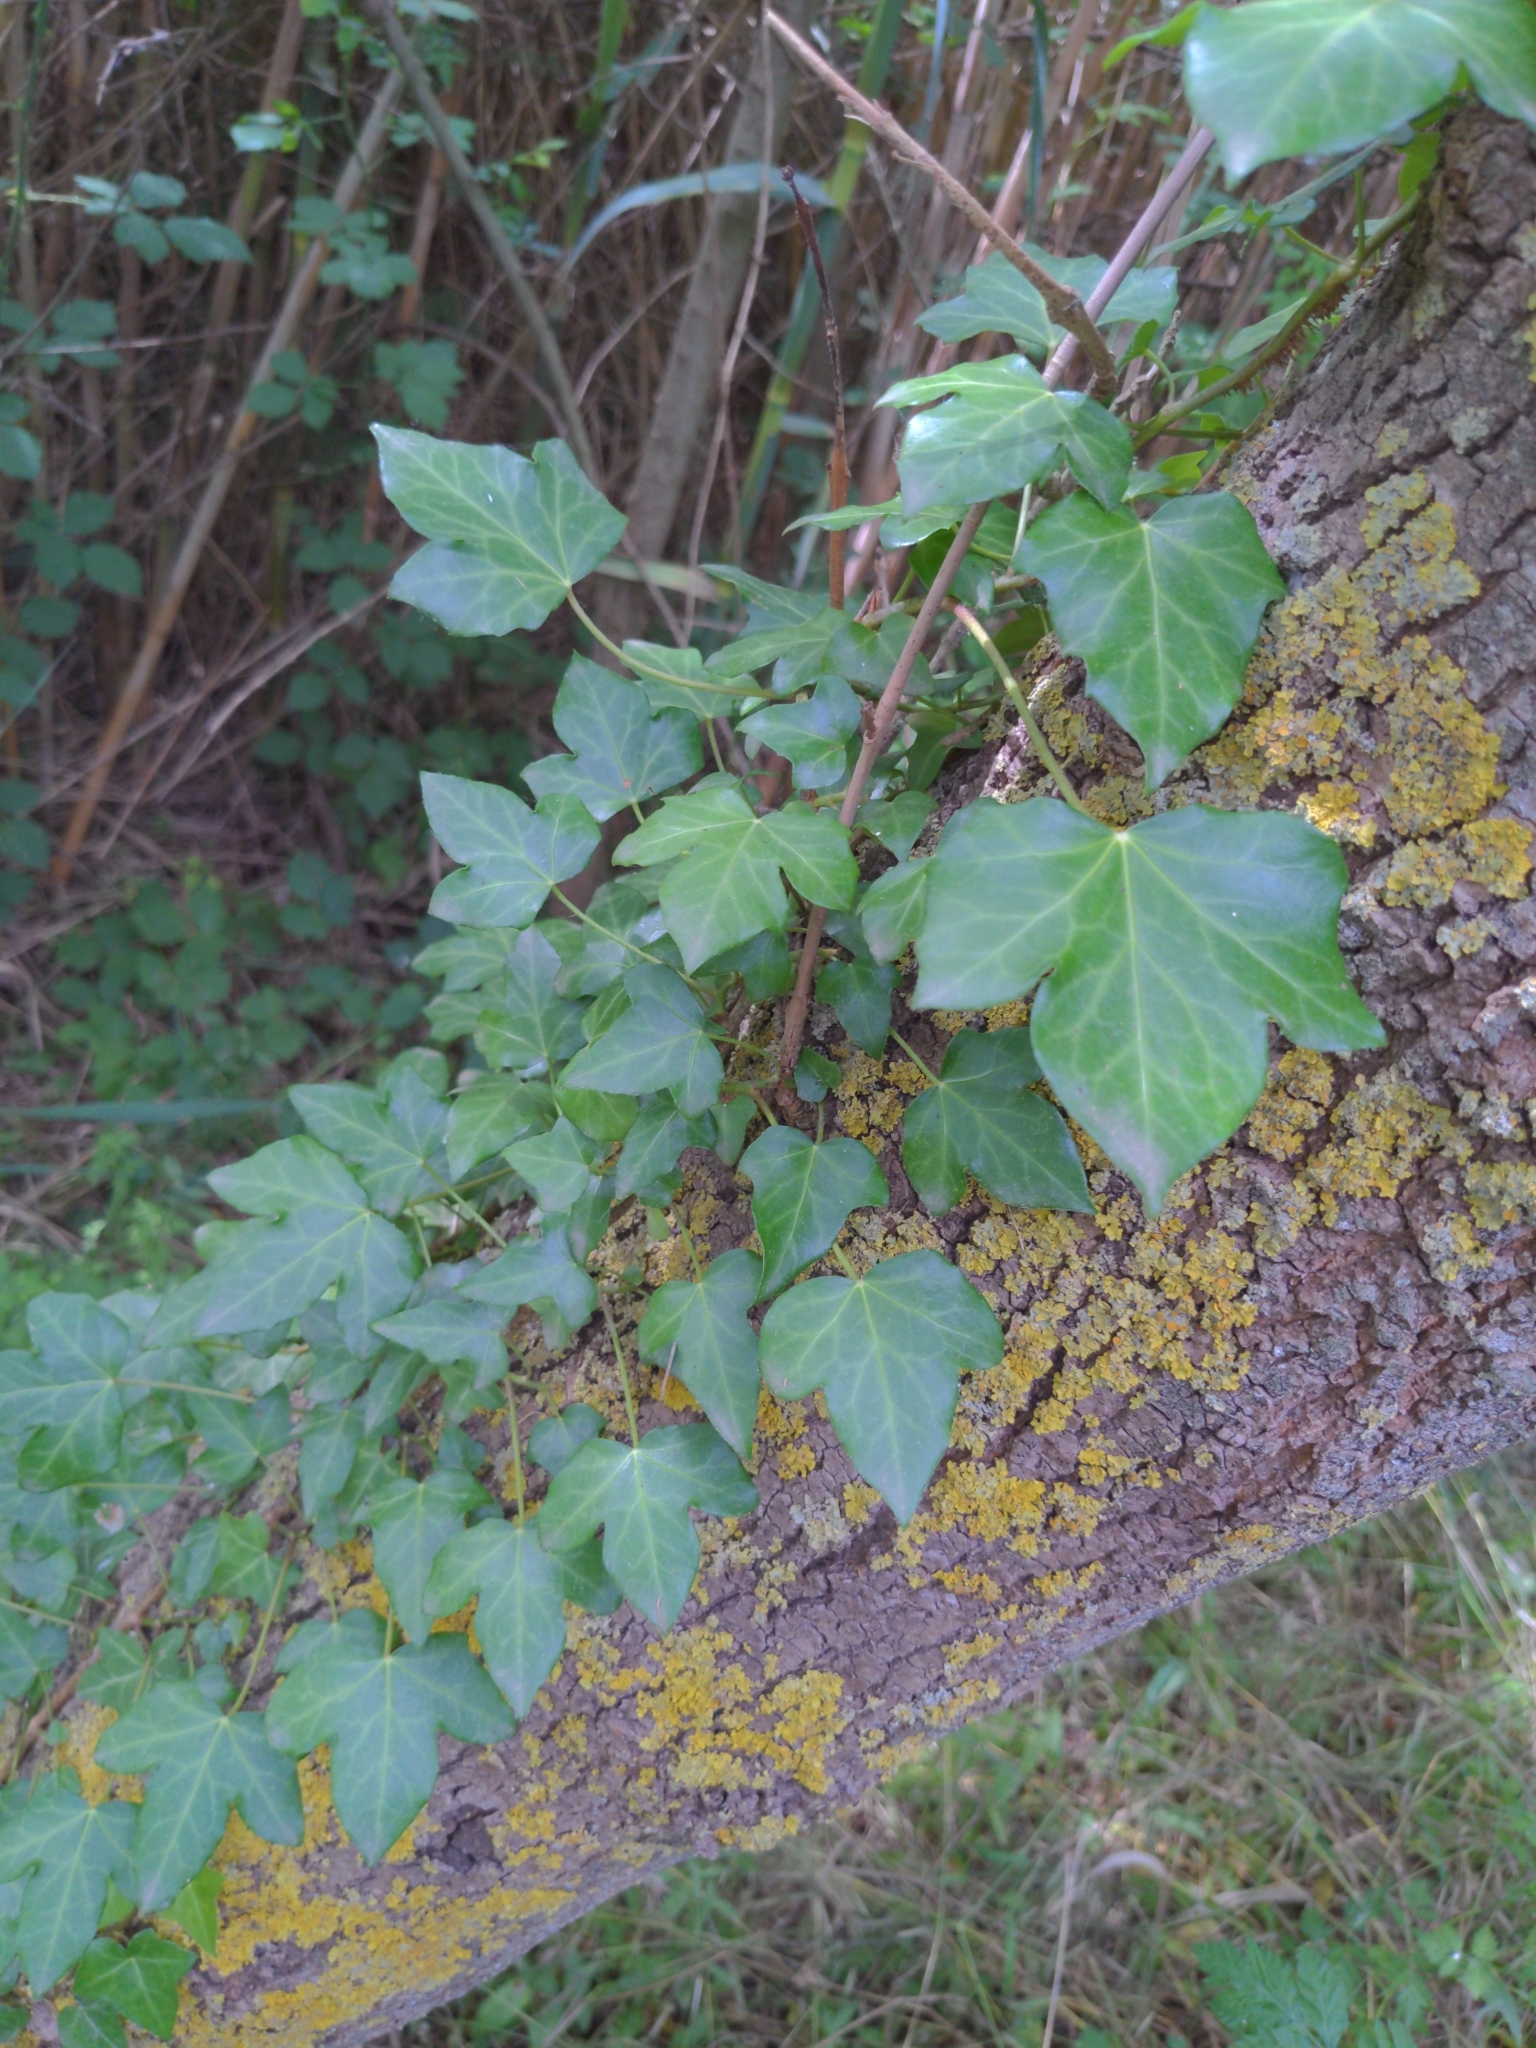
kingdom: Plantae
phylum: Tracheophyta
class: Magnoliopsida
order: Apiales
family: Araliaceae
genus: Hedera
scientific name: Hedera helix
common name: Ivy
